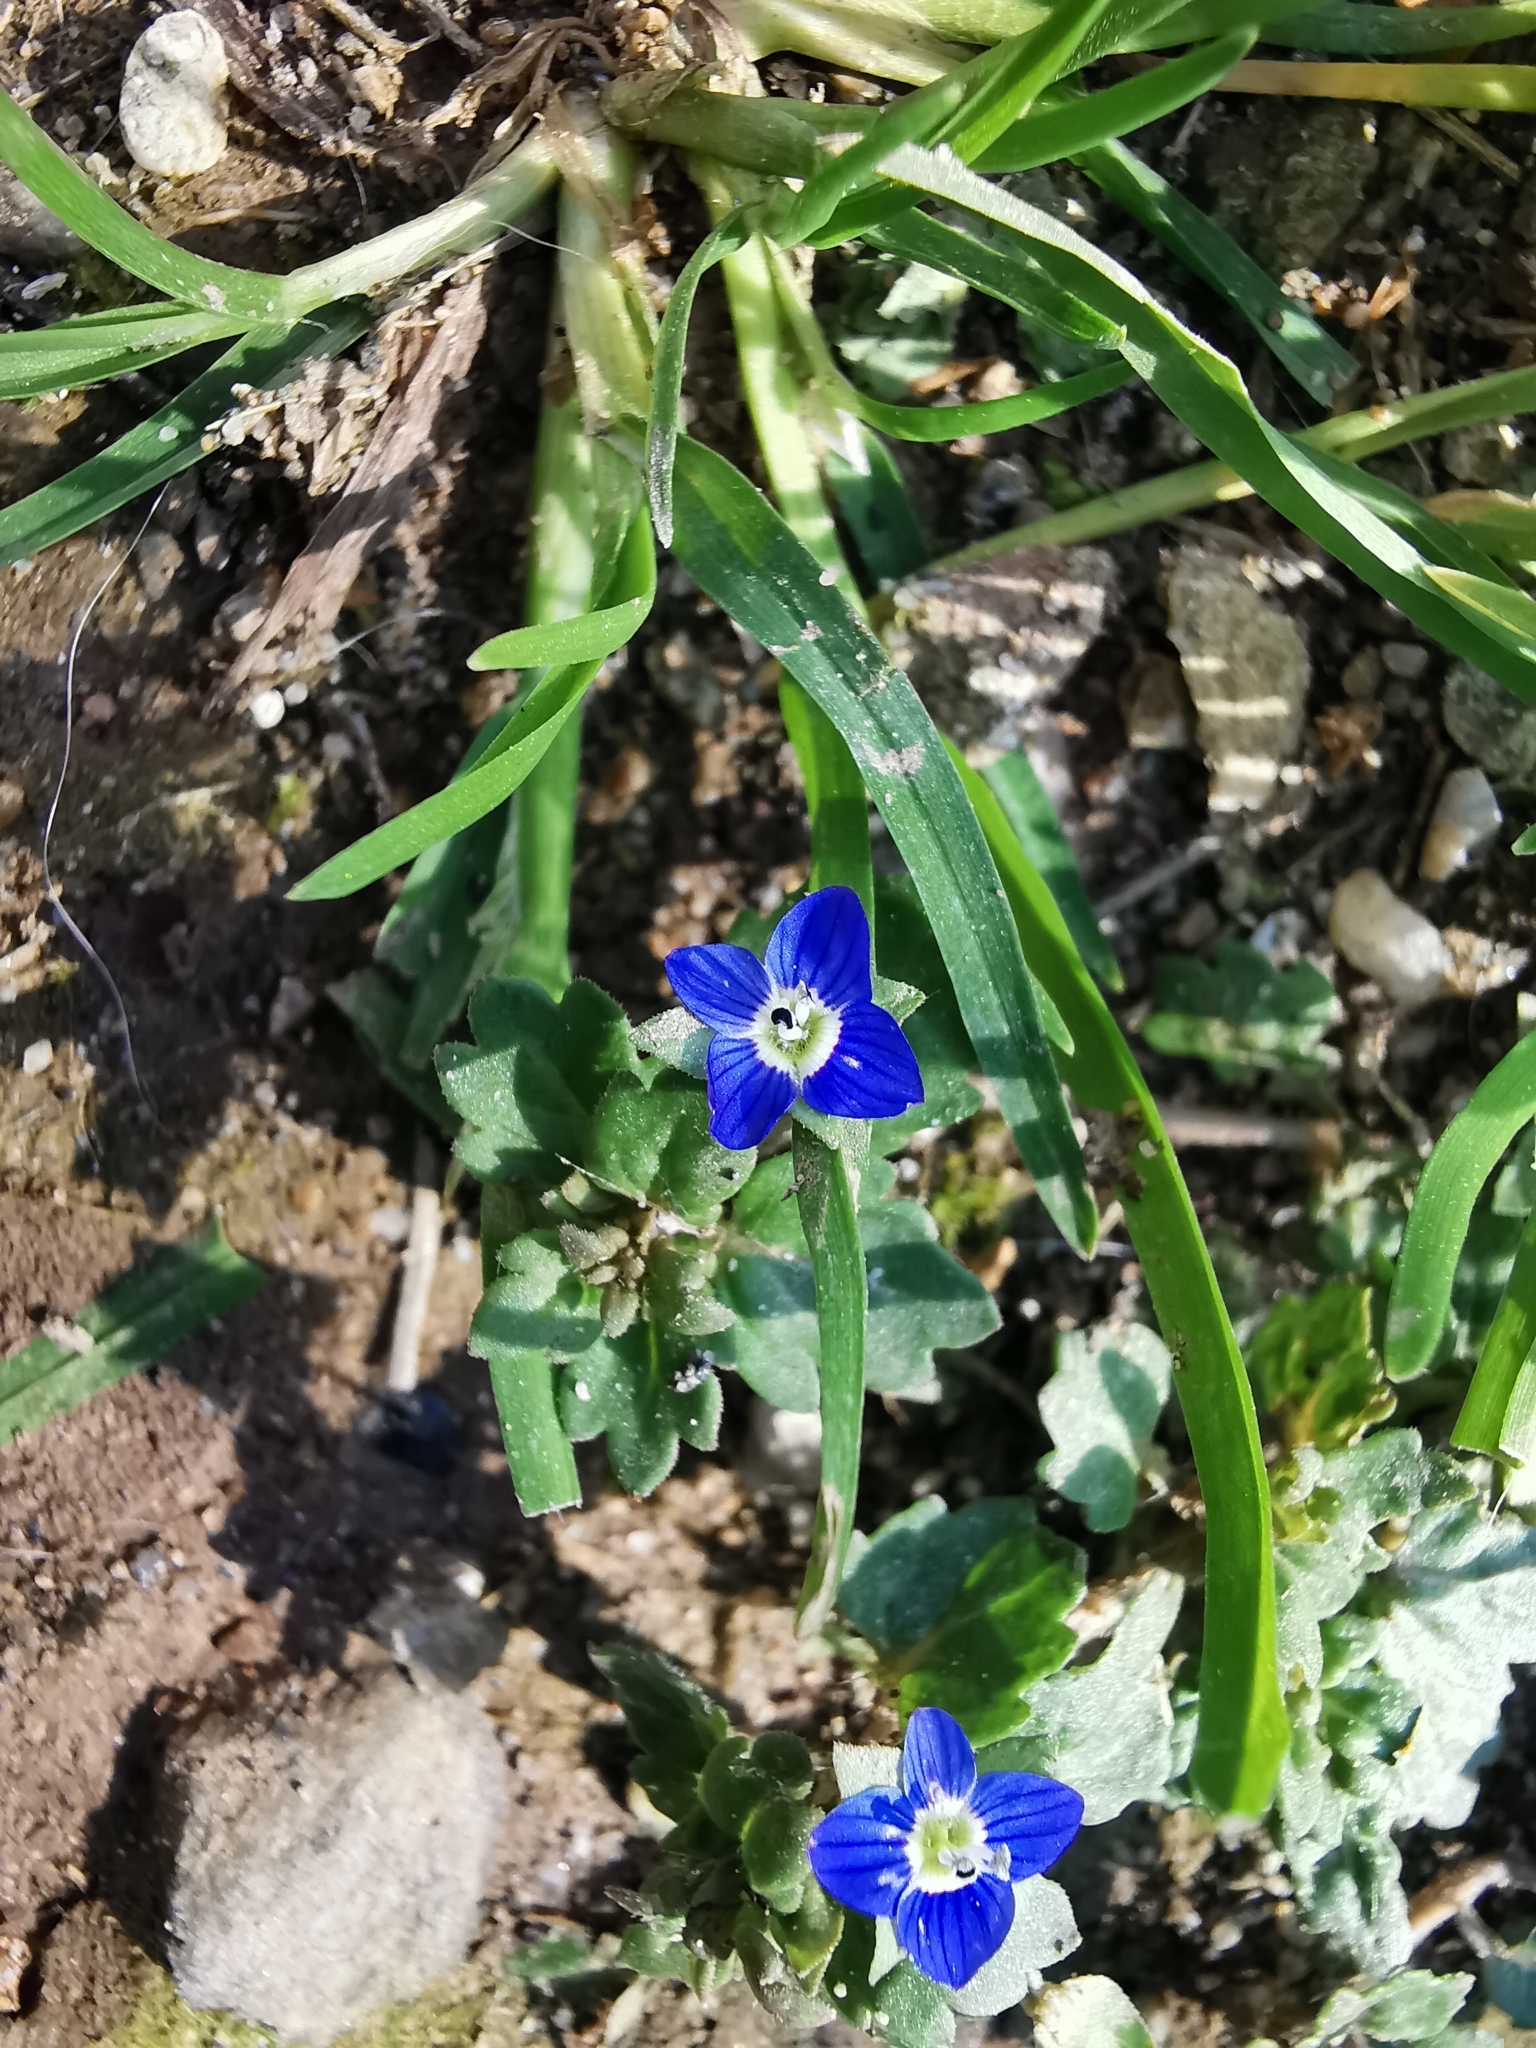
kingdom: Plantae
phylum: Tracheophyta
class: Magnoliopsida
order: Lamiales
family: Plantaginaceae
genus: Veronica
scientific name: Veronica polita
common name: Grey field-speedwell
